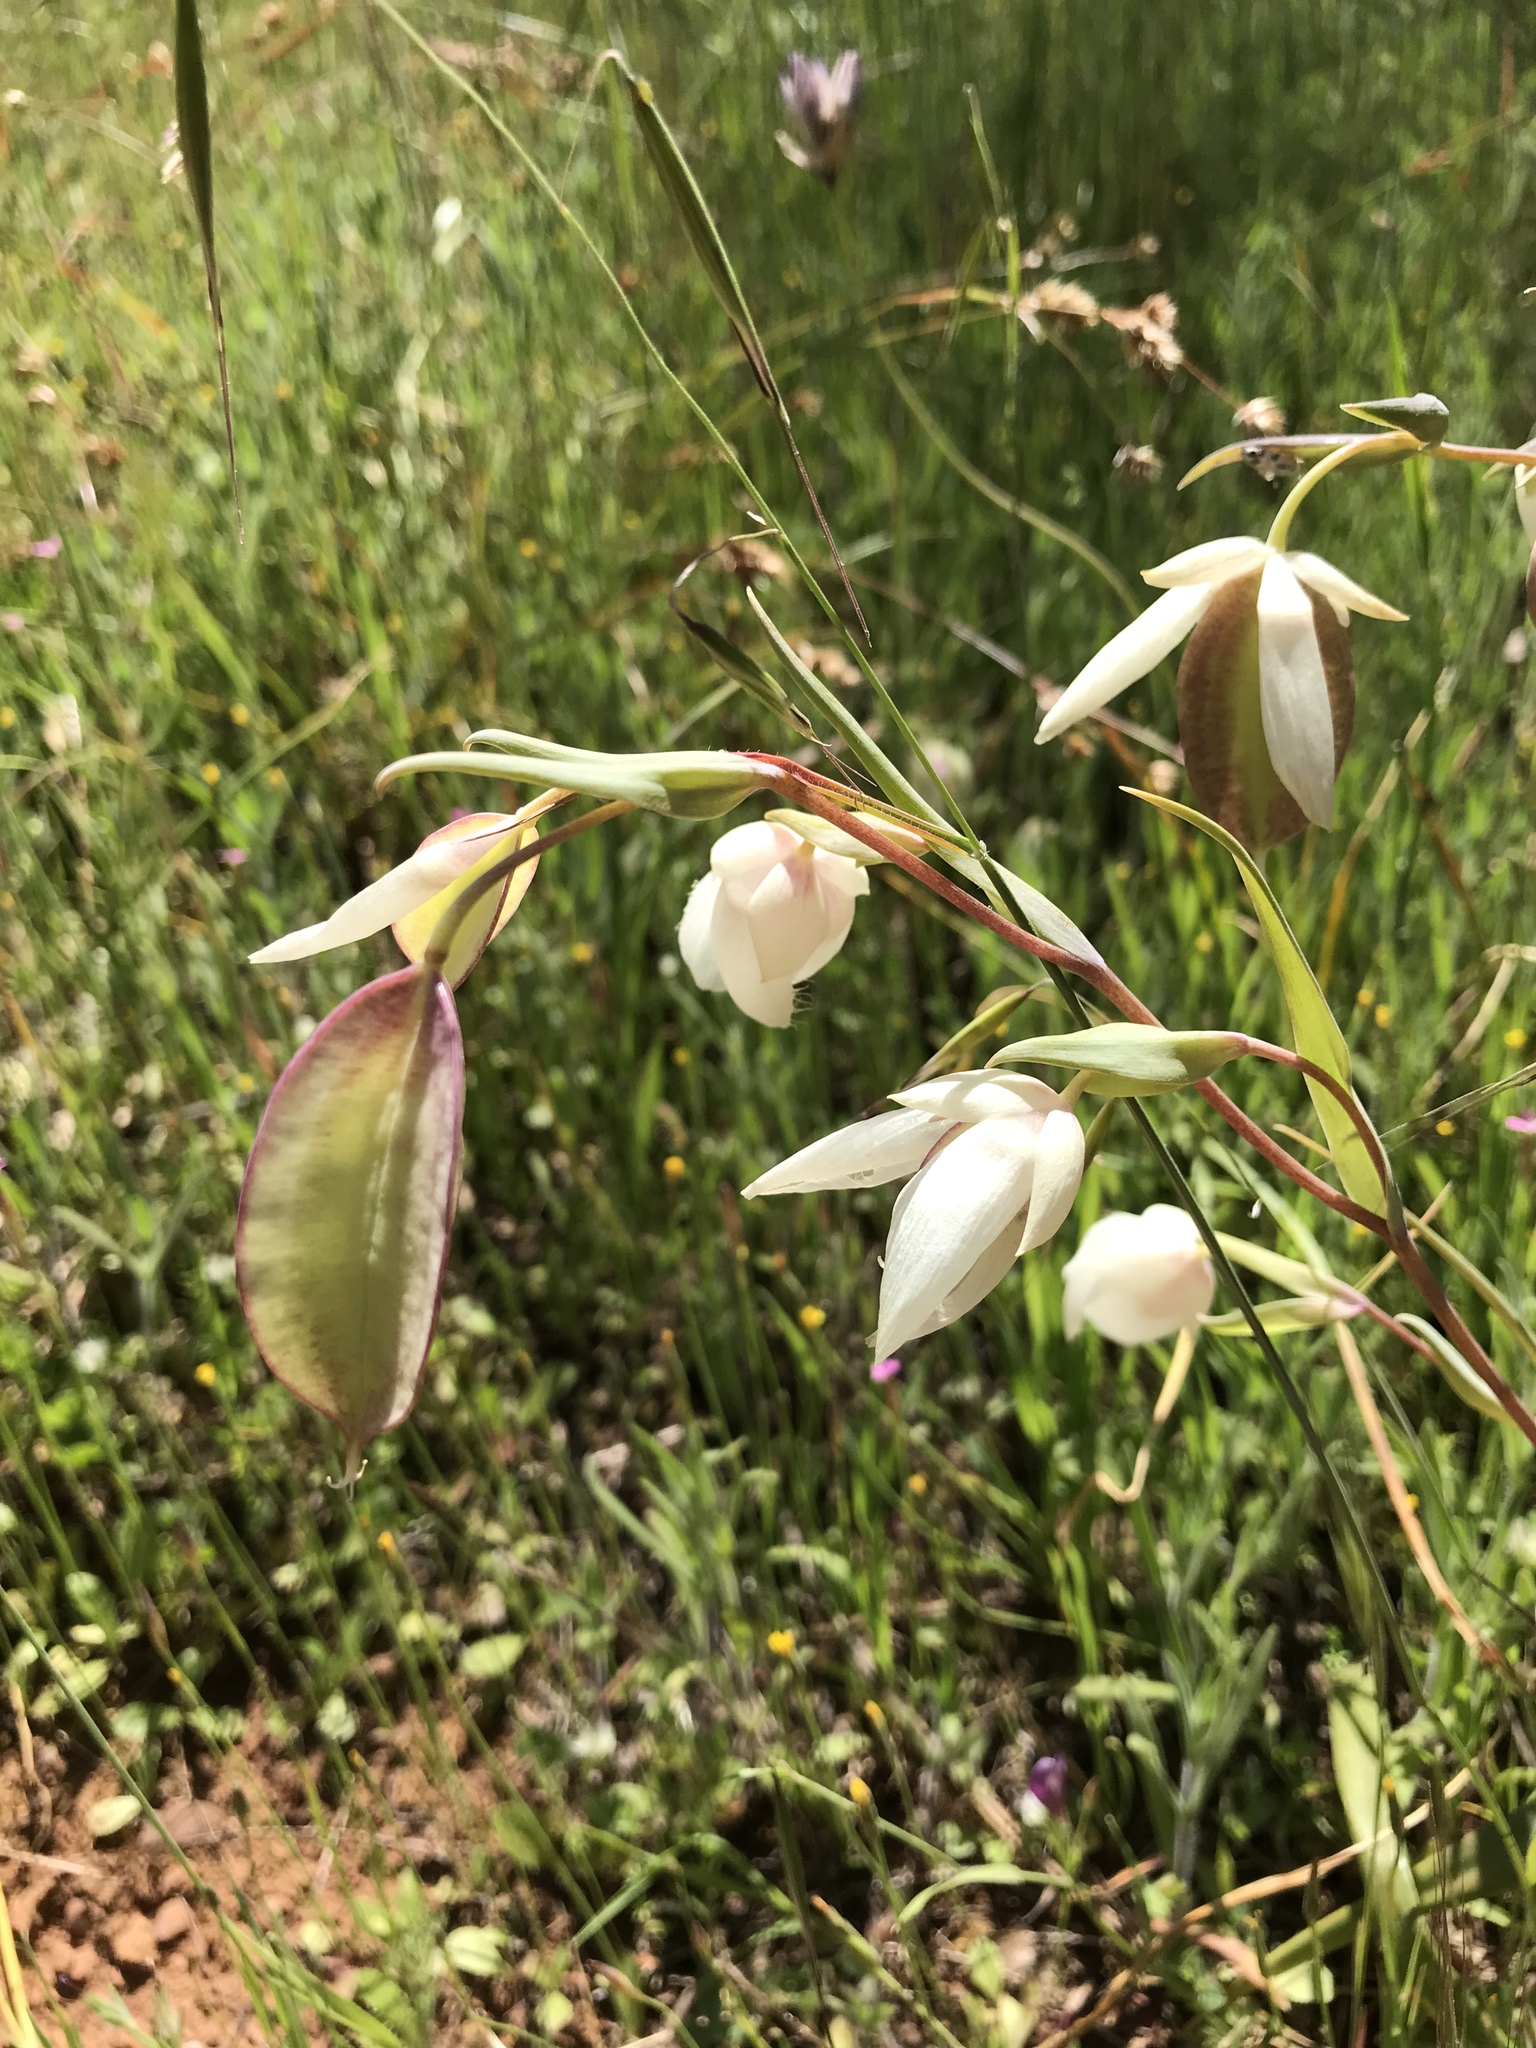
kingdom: Plantae
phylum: Tracheophyta
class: Liliopsida
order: Liliales
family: Liliaceae
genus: Calochortus
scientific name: Calochortus albus
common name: Fairy-lantern
